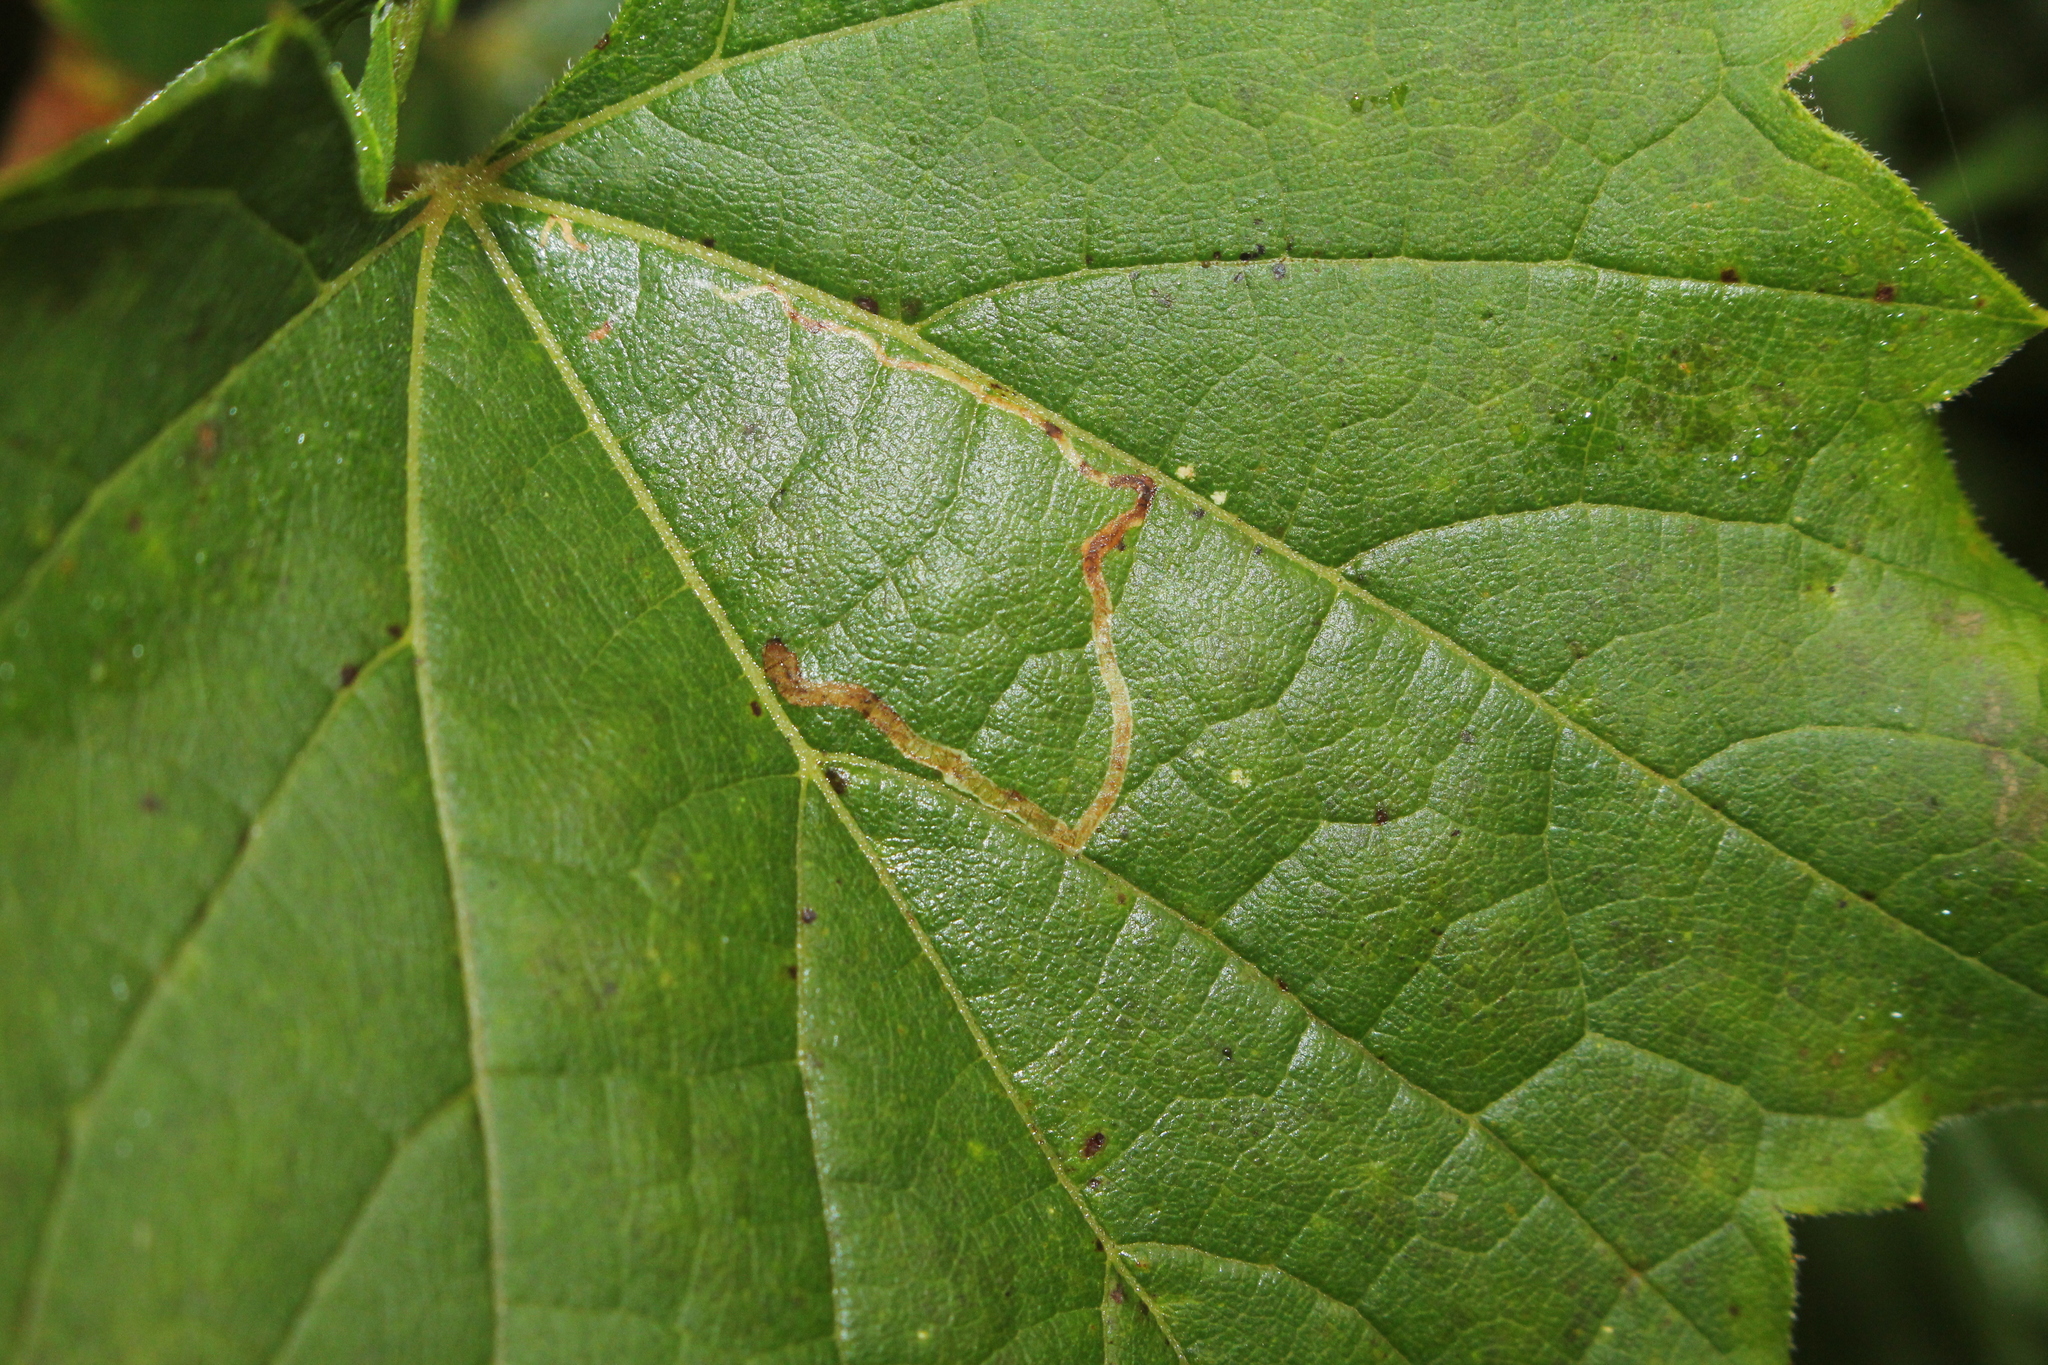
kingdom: Animalia
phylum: Arthropoda
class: Insecta
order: Lepidoptera
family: Gracillariidae
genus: Phyllocnistis
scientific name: Phyllocnistis vitifoliella
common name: Grape leaf-miner moth
